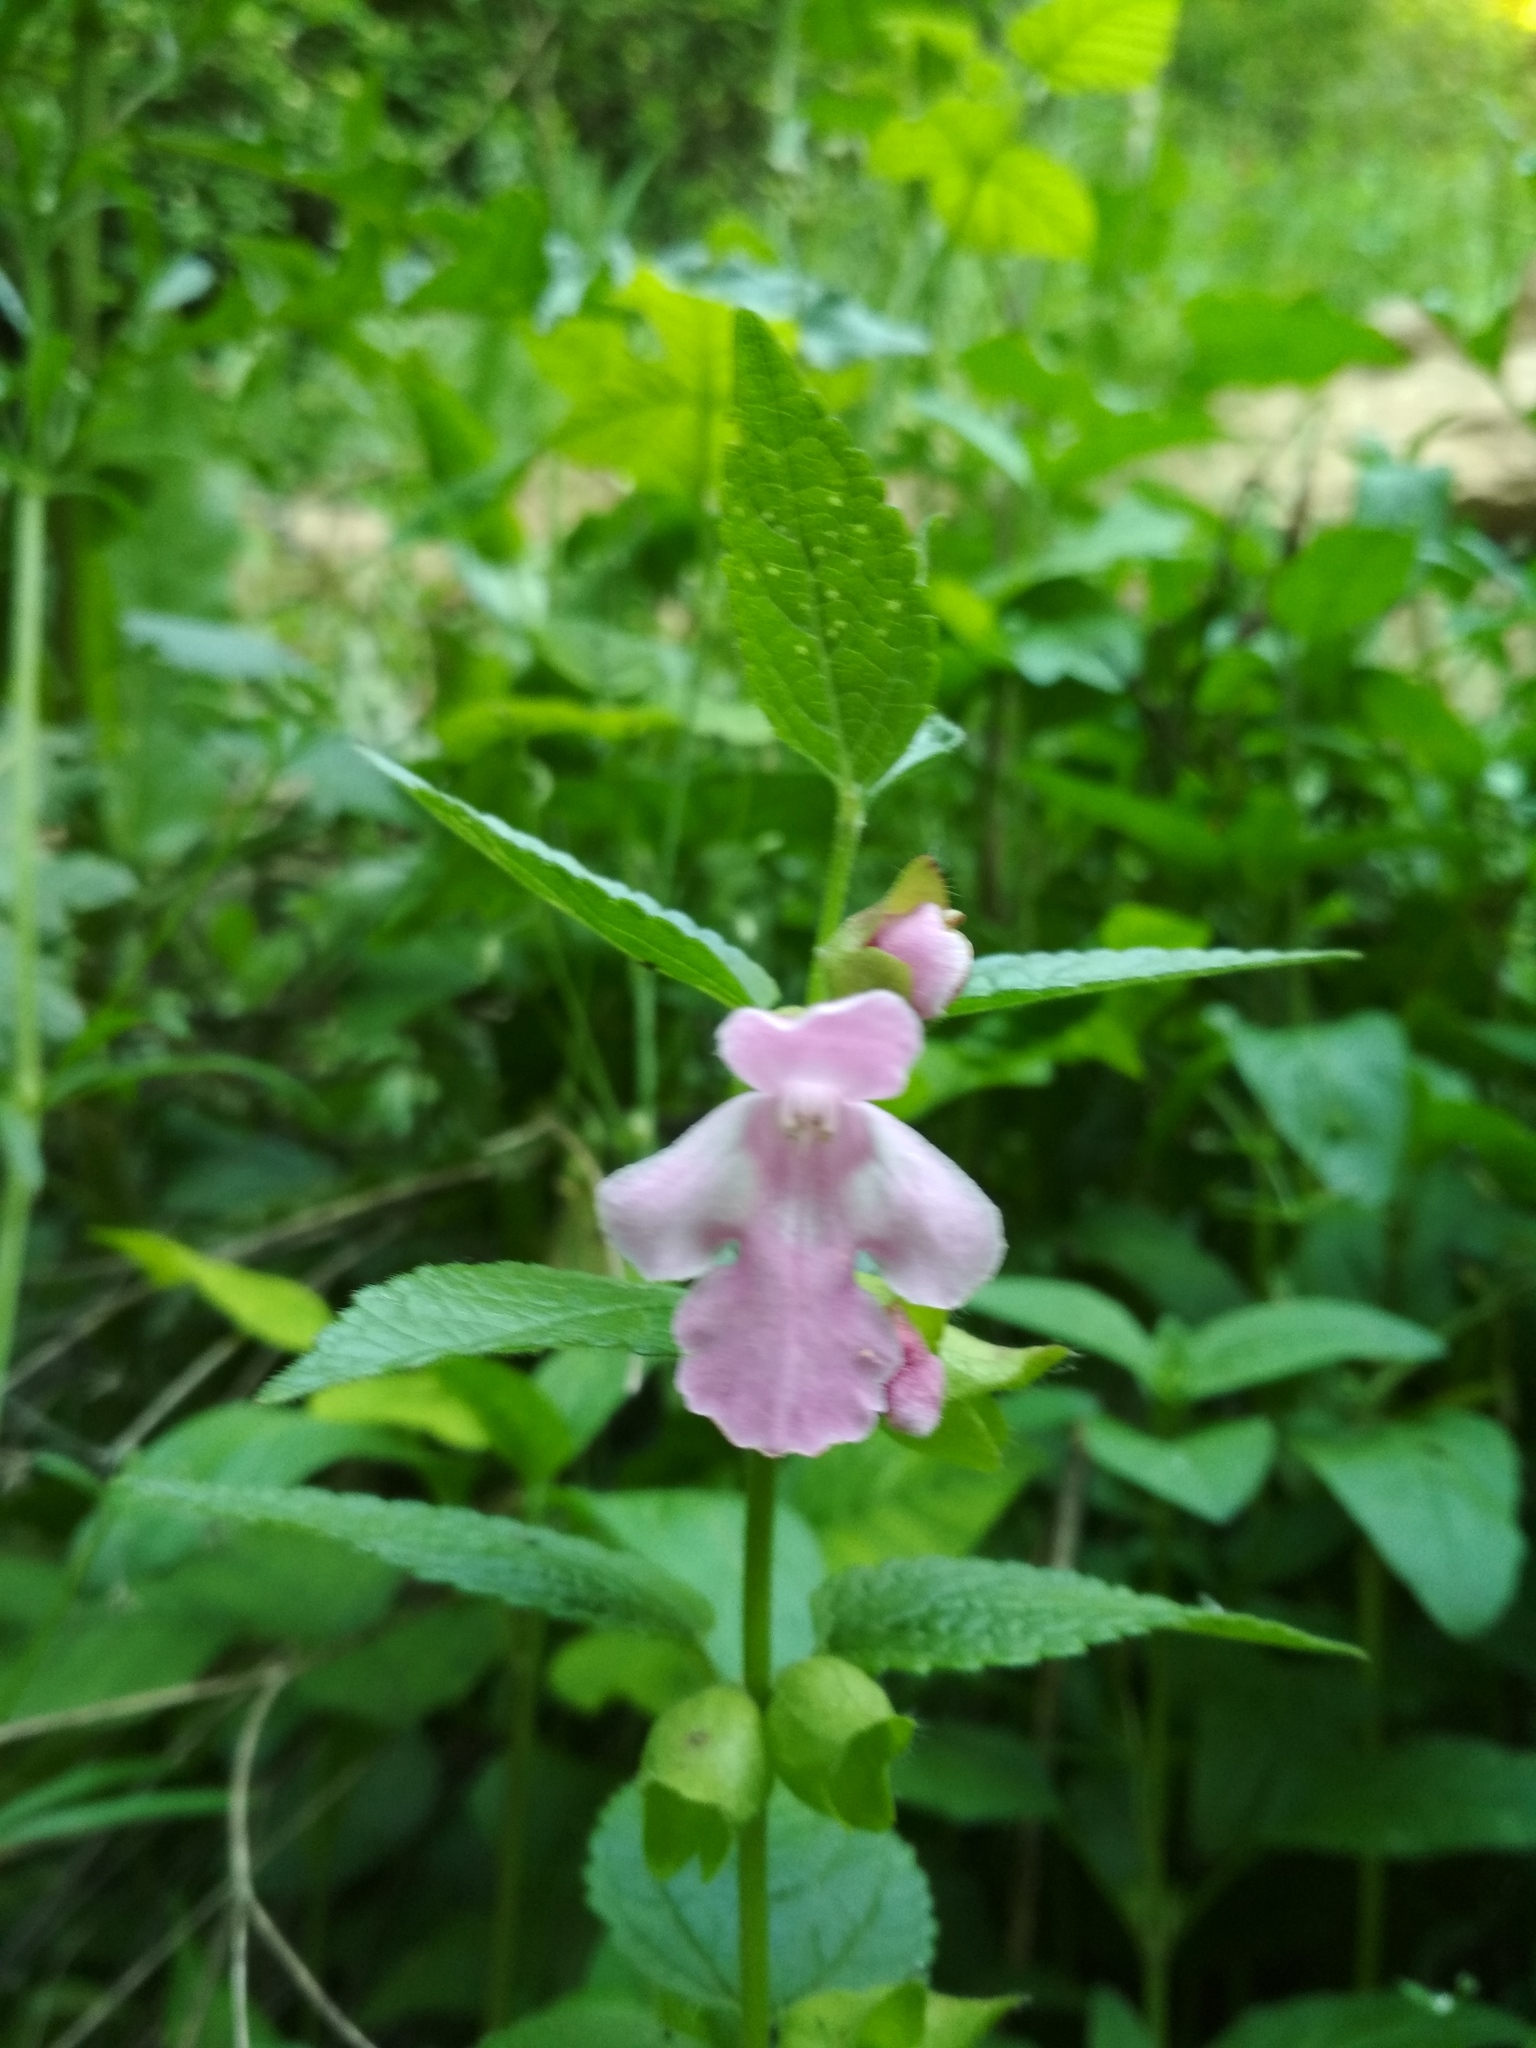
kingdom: Plantae
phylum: Tracheophyta
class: Magnoliopsida
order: Lamiales
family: Lamiaceae
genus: Melittis
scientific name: Melittis melissophyllum
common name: Bastard balm
